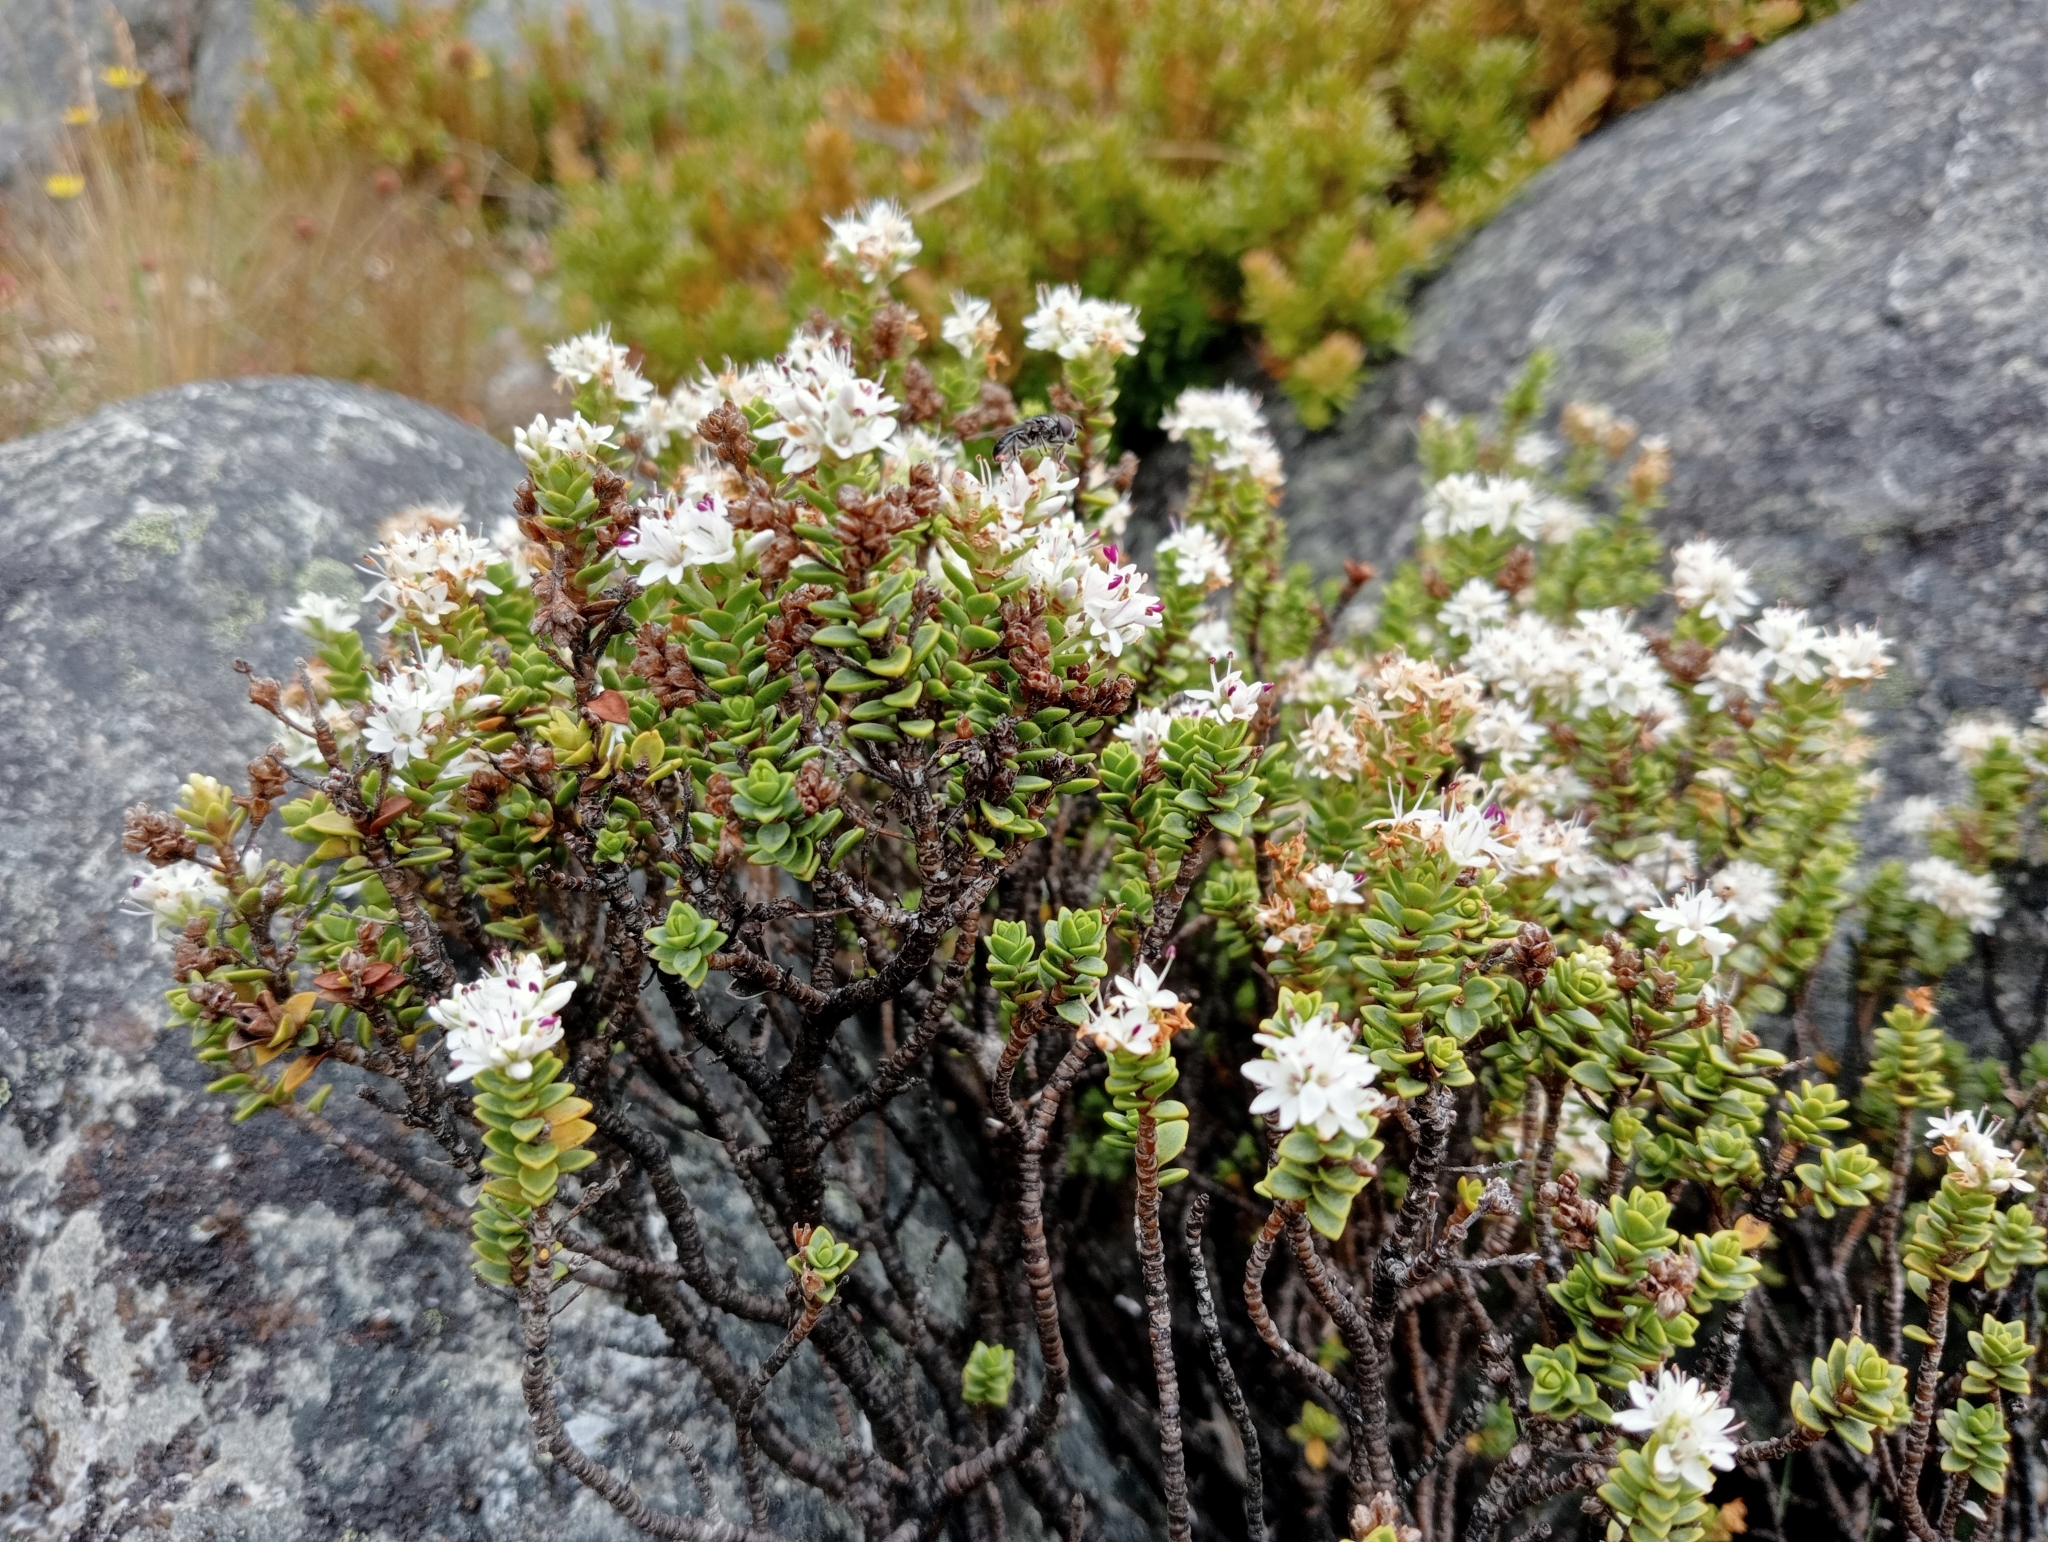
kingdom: Plantae
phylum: Tracheophyta
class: Magnoliopsida
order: Lamiales
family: Plantaginaceae
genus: Veronica
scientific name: Veronica buchananii
